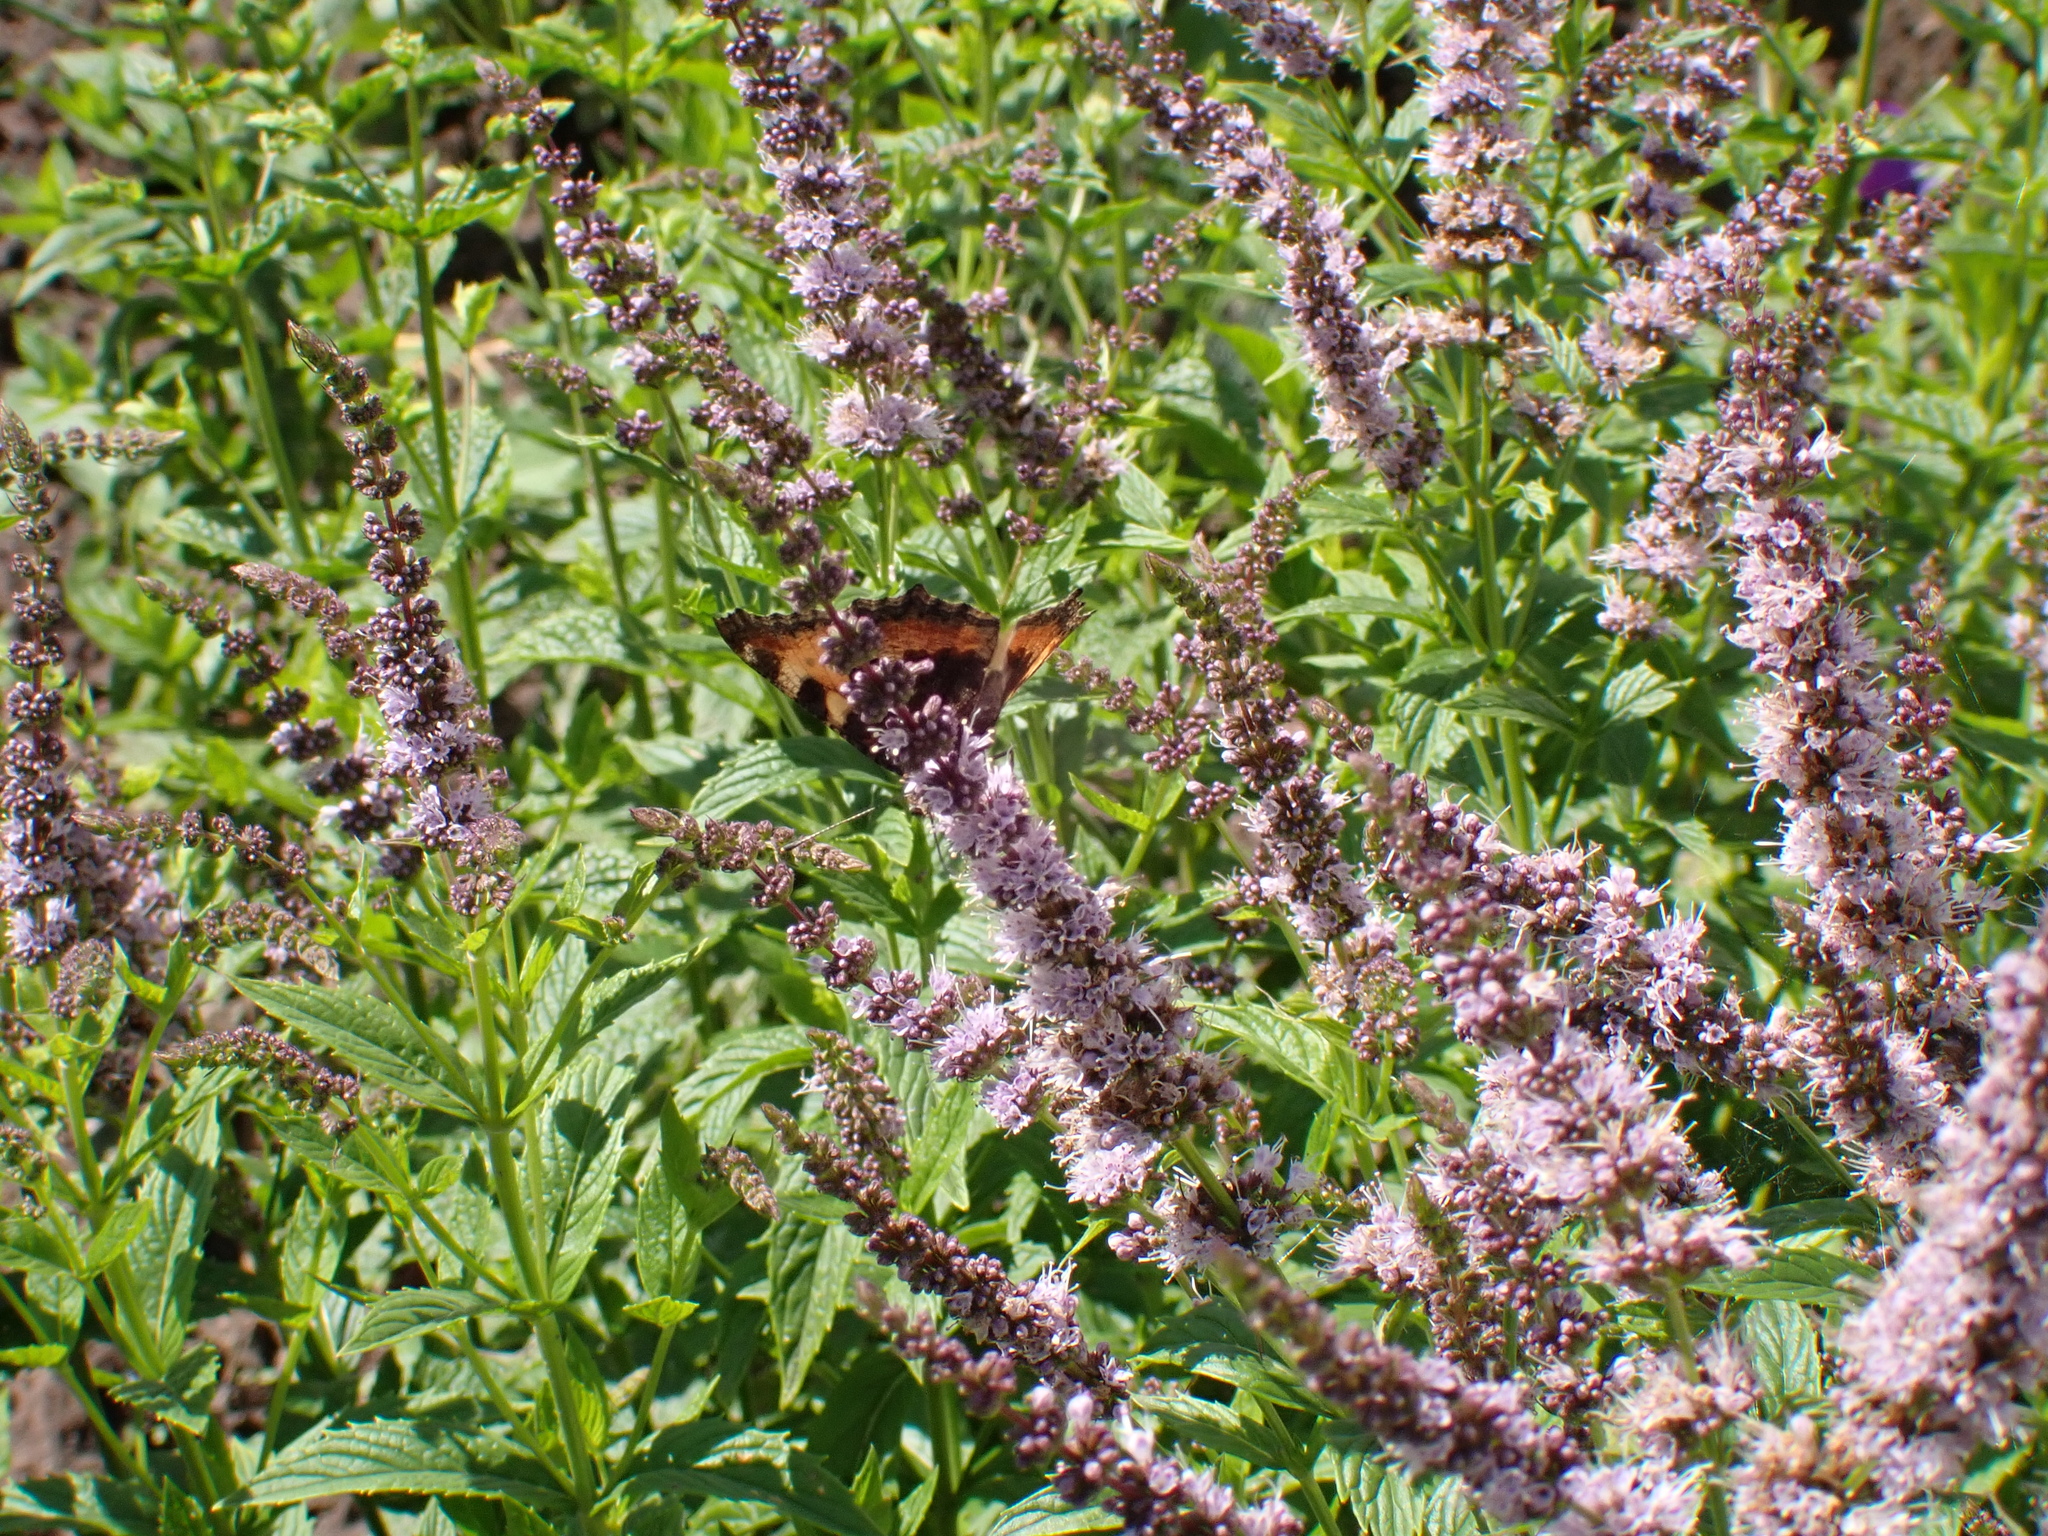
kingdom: Animalia
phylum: Arthropoda
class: Insecta
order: Lepidoptera
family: Nymphalidae
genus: Aglais
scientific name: Aglais urticae
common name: Small tortoiseshell
